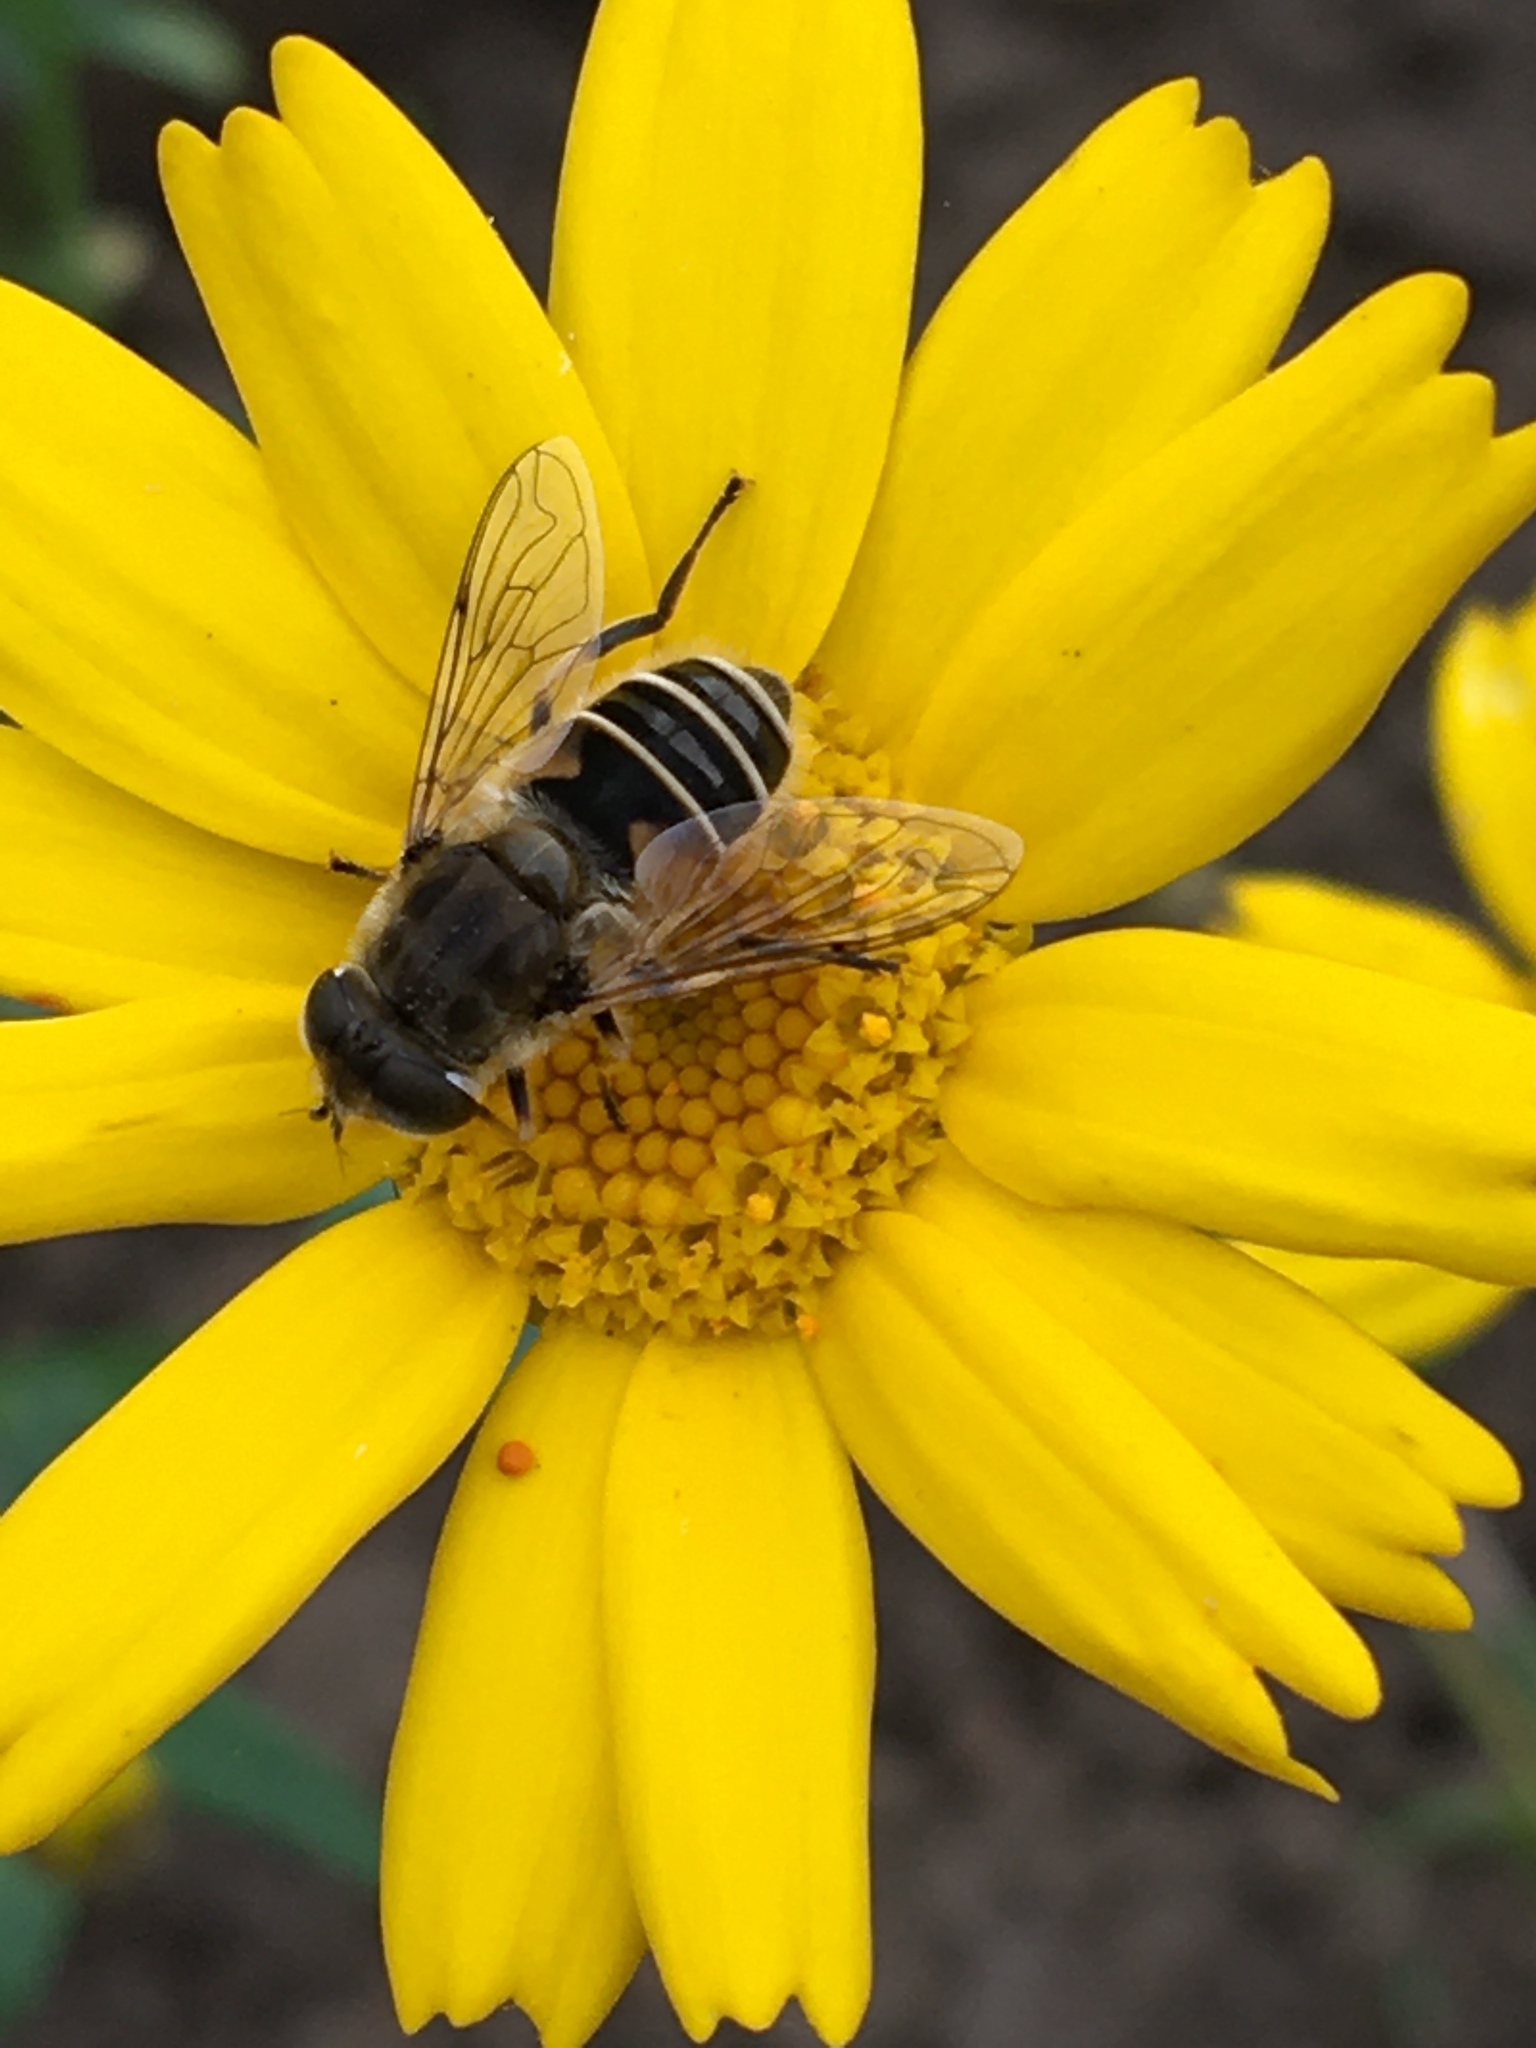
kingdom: Animalia
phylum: Arthropoda
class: Insecta
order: Diptera
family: Syrphidae
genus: Eristalis
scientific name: Eristalis arbustorum
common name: Hover fly
